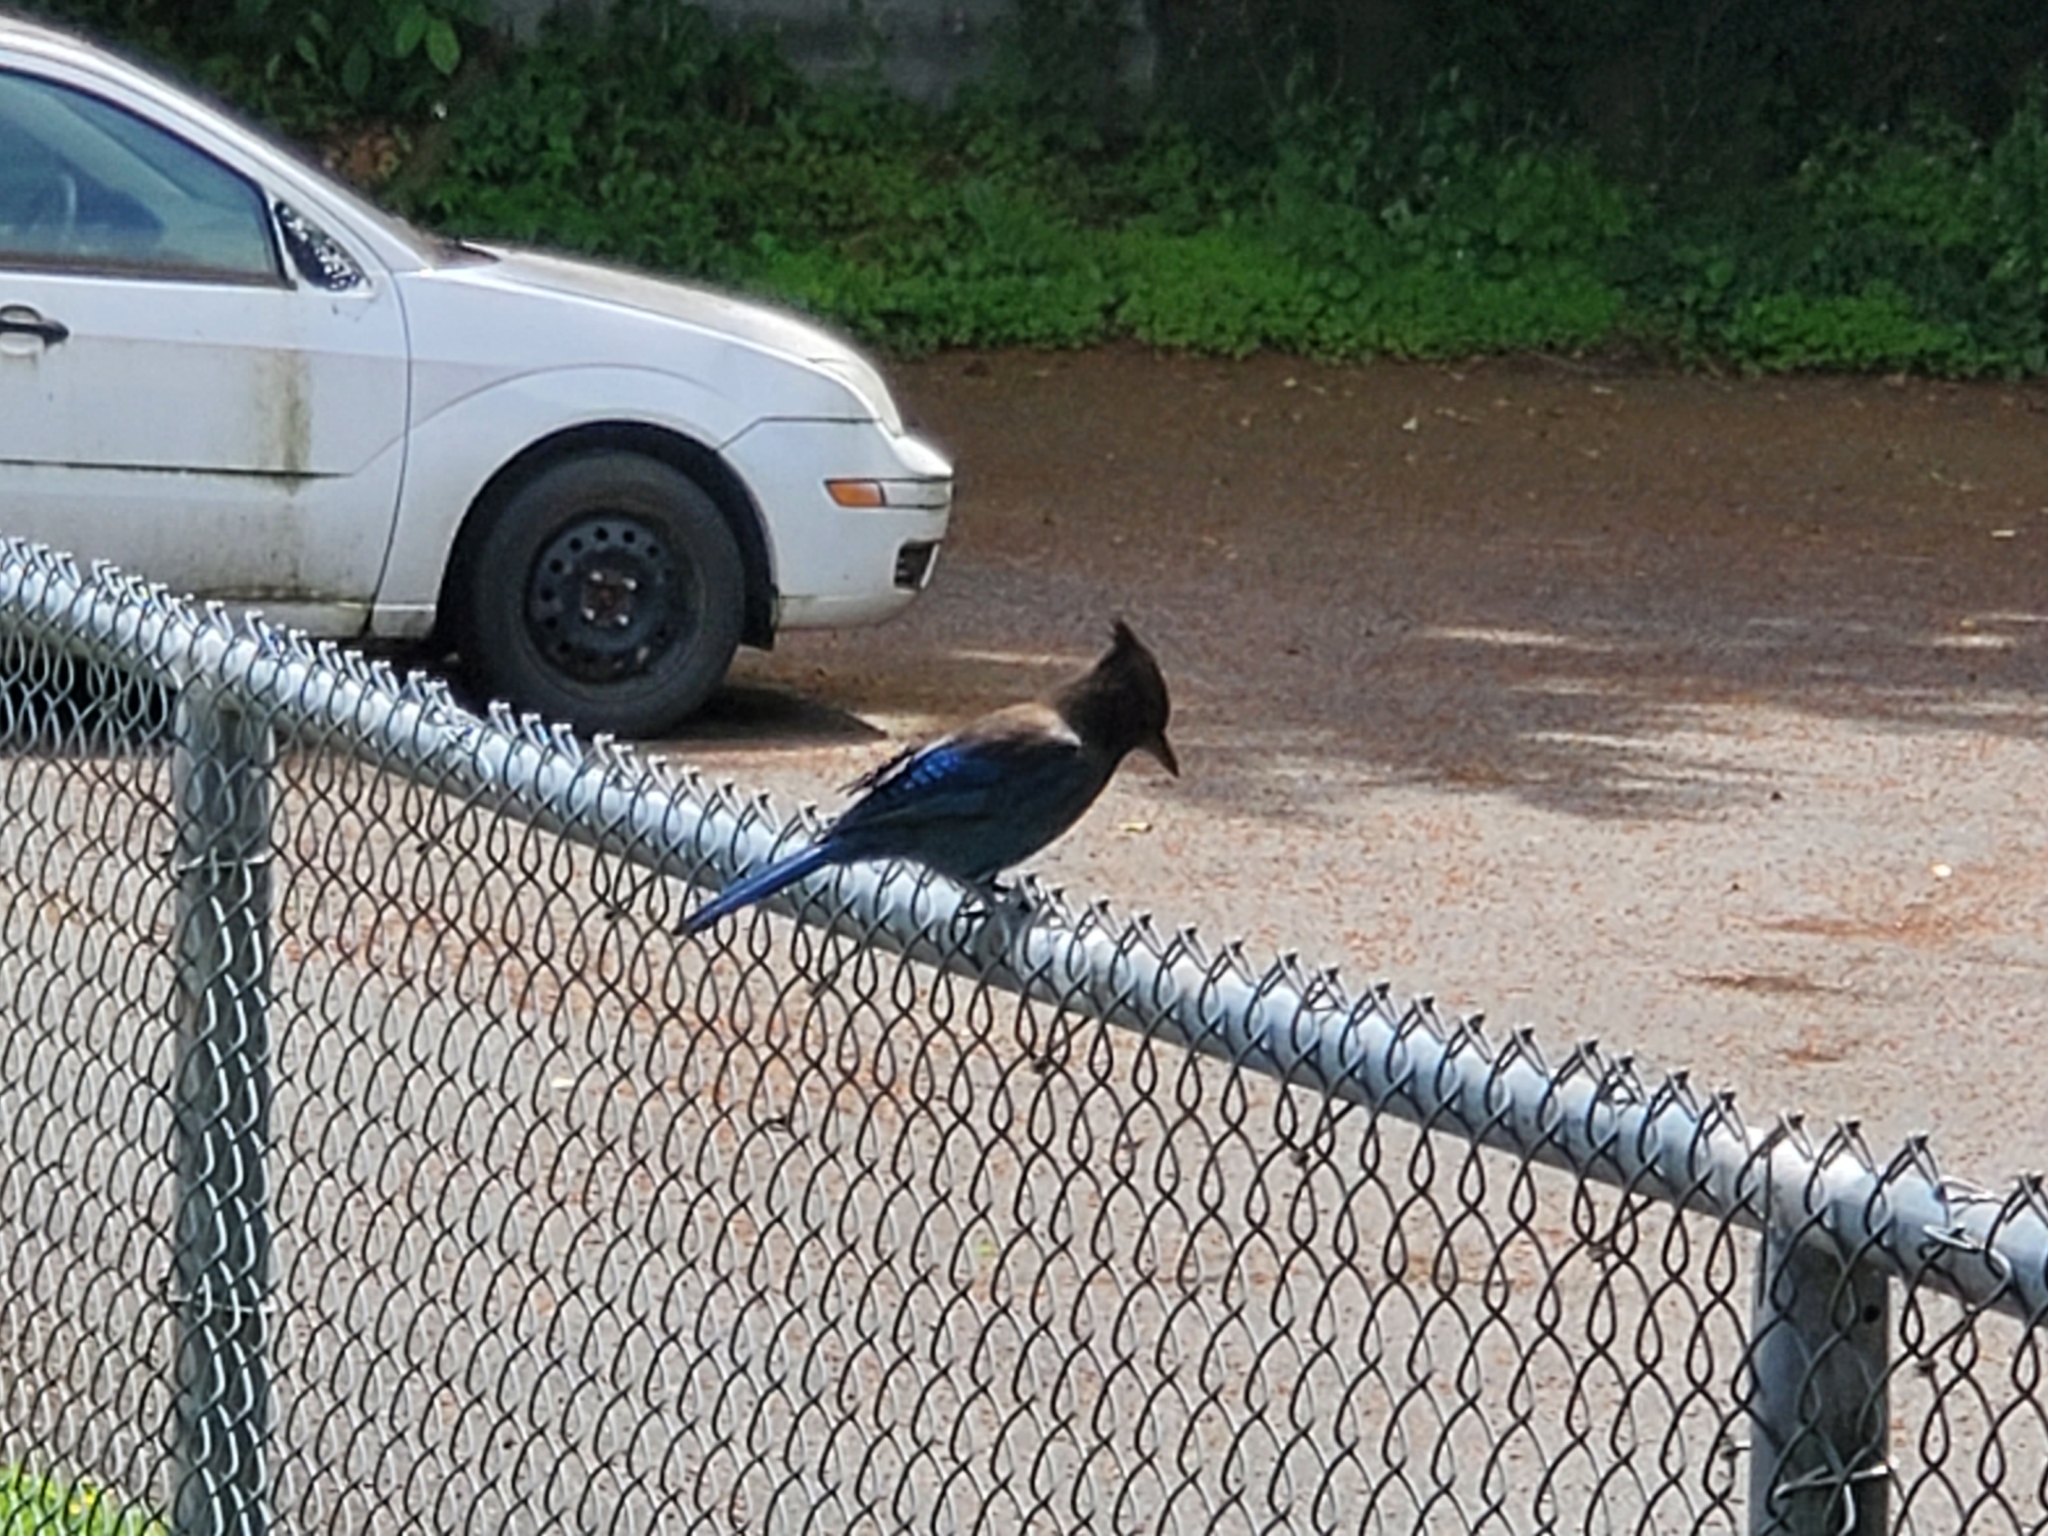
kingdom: Animalia
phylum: Chordata
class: Aves
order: Passeriformes
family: Corvidae
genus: Cyanocitta
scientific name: Cyanocitta stelleri
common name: Steller's jay
